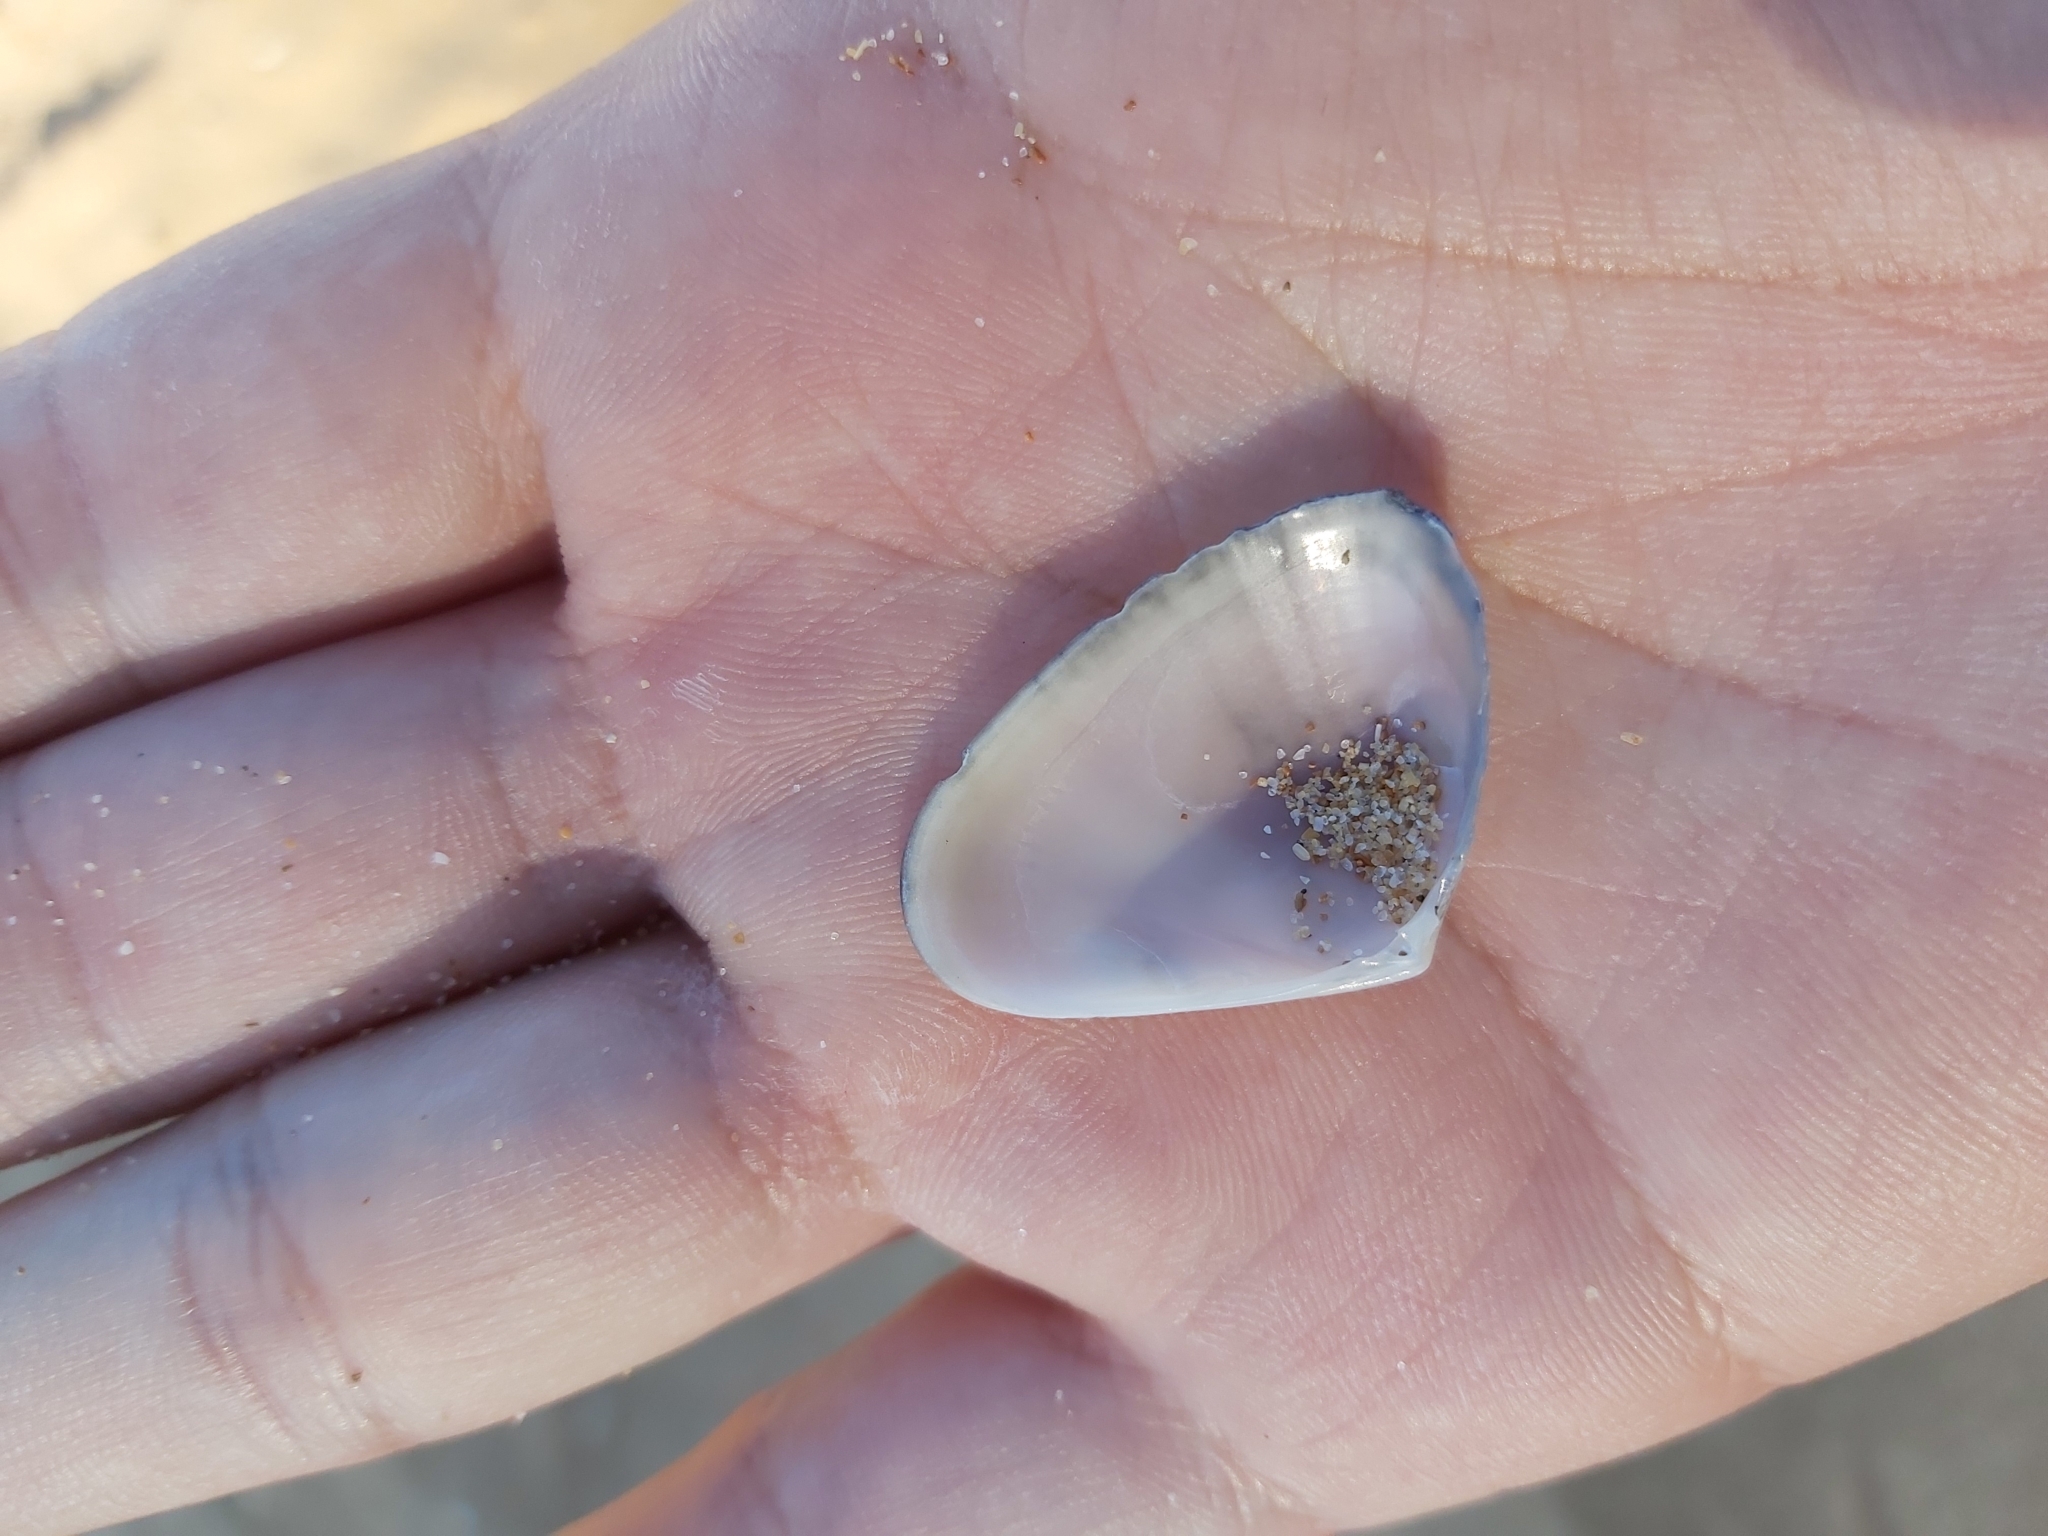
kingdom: Animalia
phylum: Mollusca
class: Bivalvia
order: Cardiida
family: Donacidae
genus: Latona
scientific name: Latona deltoides
